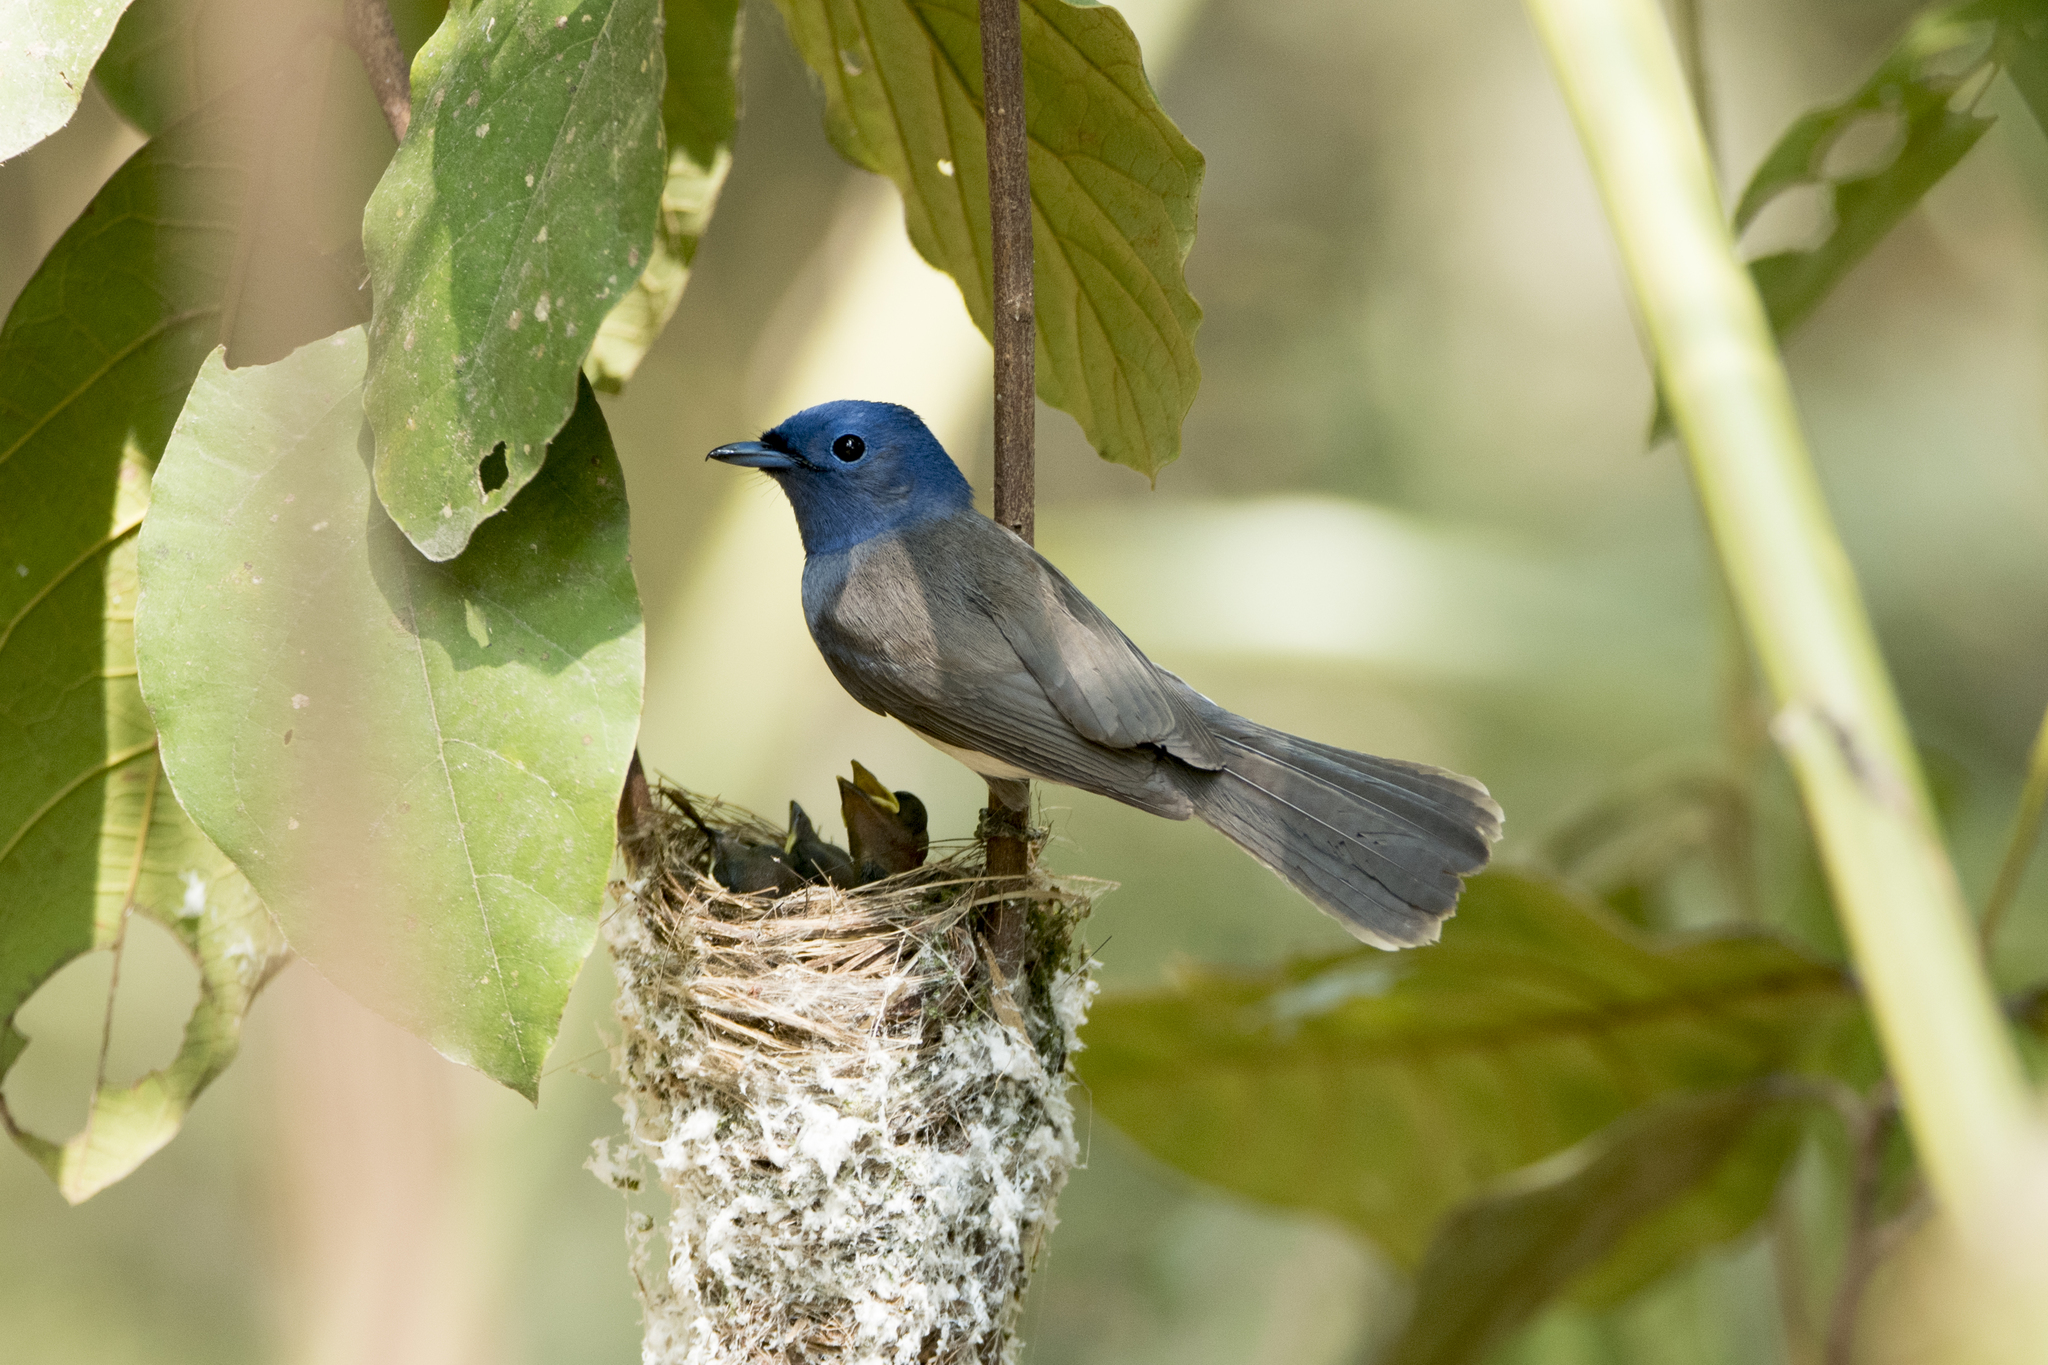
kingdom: Animalia
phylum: Chordata
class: Aves
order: Passeriformes
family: Monarchidae
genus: Hypothymis
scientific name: Hypothymis azurea
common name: Black-naped monarch
